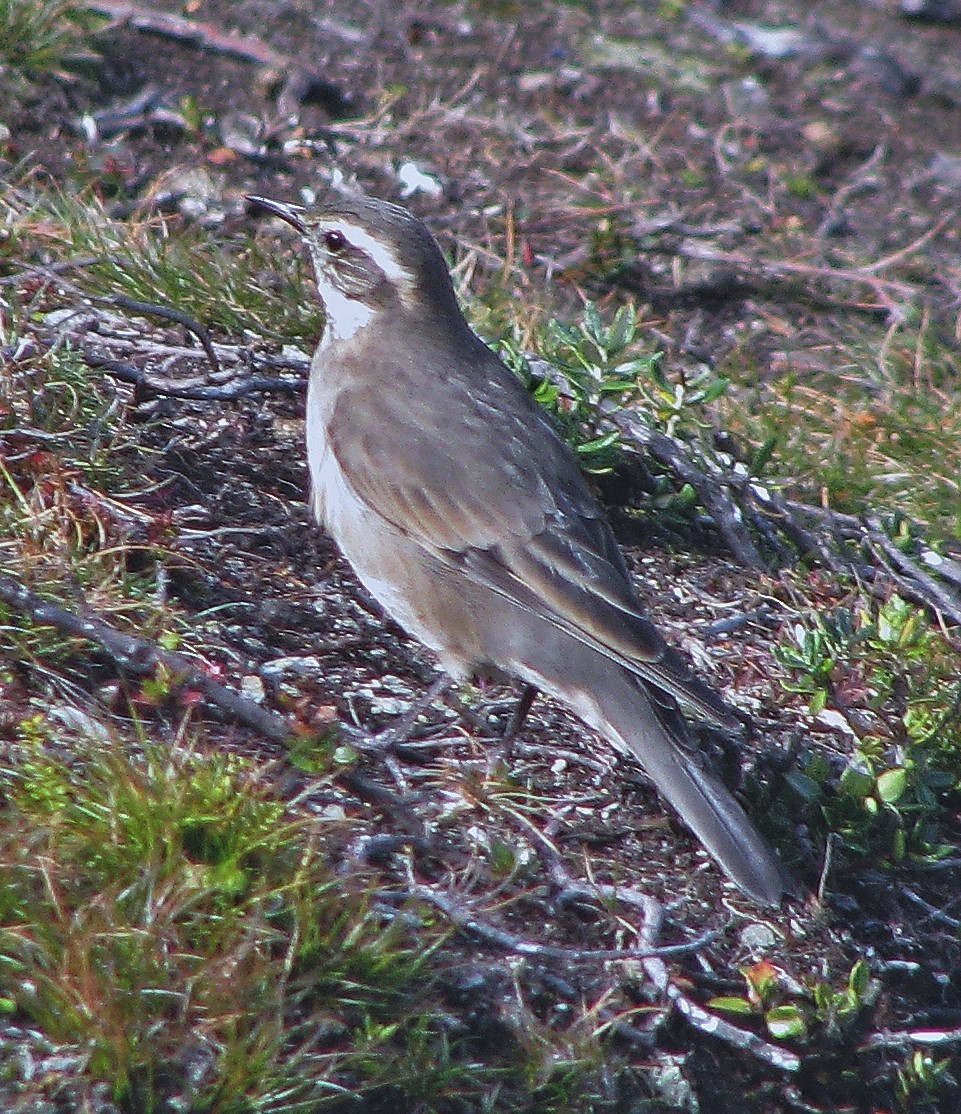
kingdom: Animalia
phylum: Chordata
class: Aves
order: Passeriformes
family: Furnariidae
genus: Cinclodes
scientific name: Cinclodes fuscus
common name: Buff-winged cinclodes
